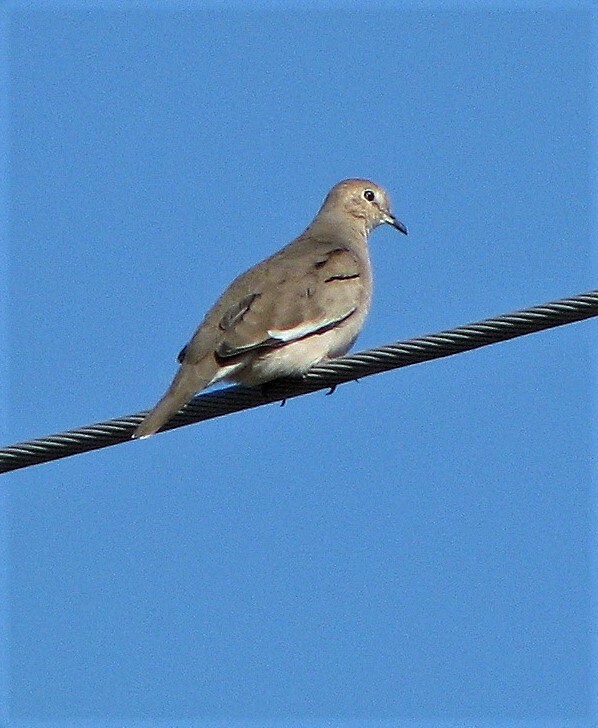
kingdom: Animalia
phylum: Chordata
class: Aves
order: Columbiformes
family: Columbidae
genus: Columbina
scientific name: Columbina picui
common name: Picui ground dove
